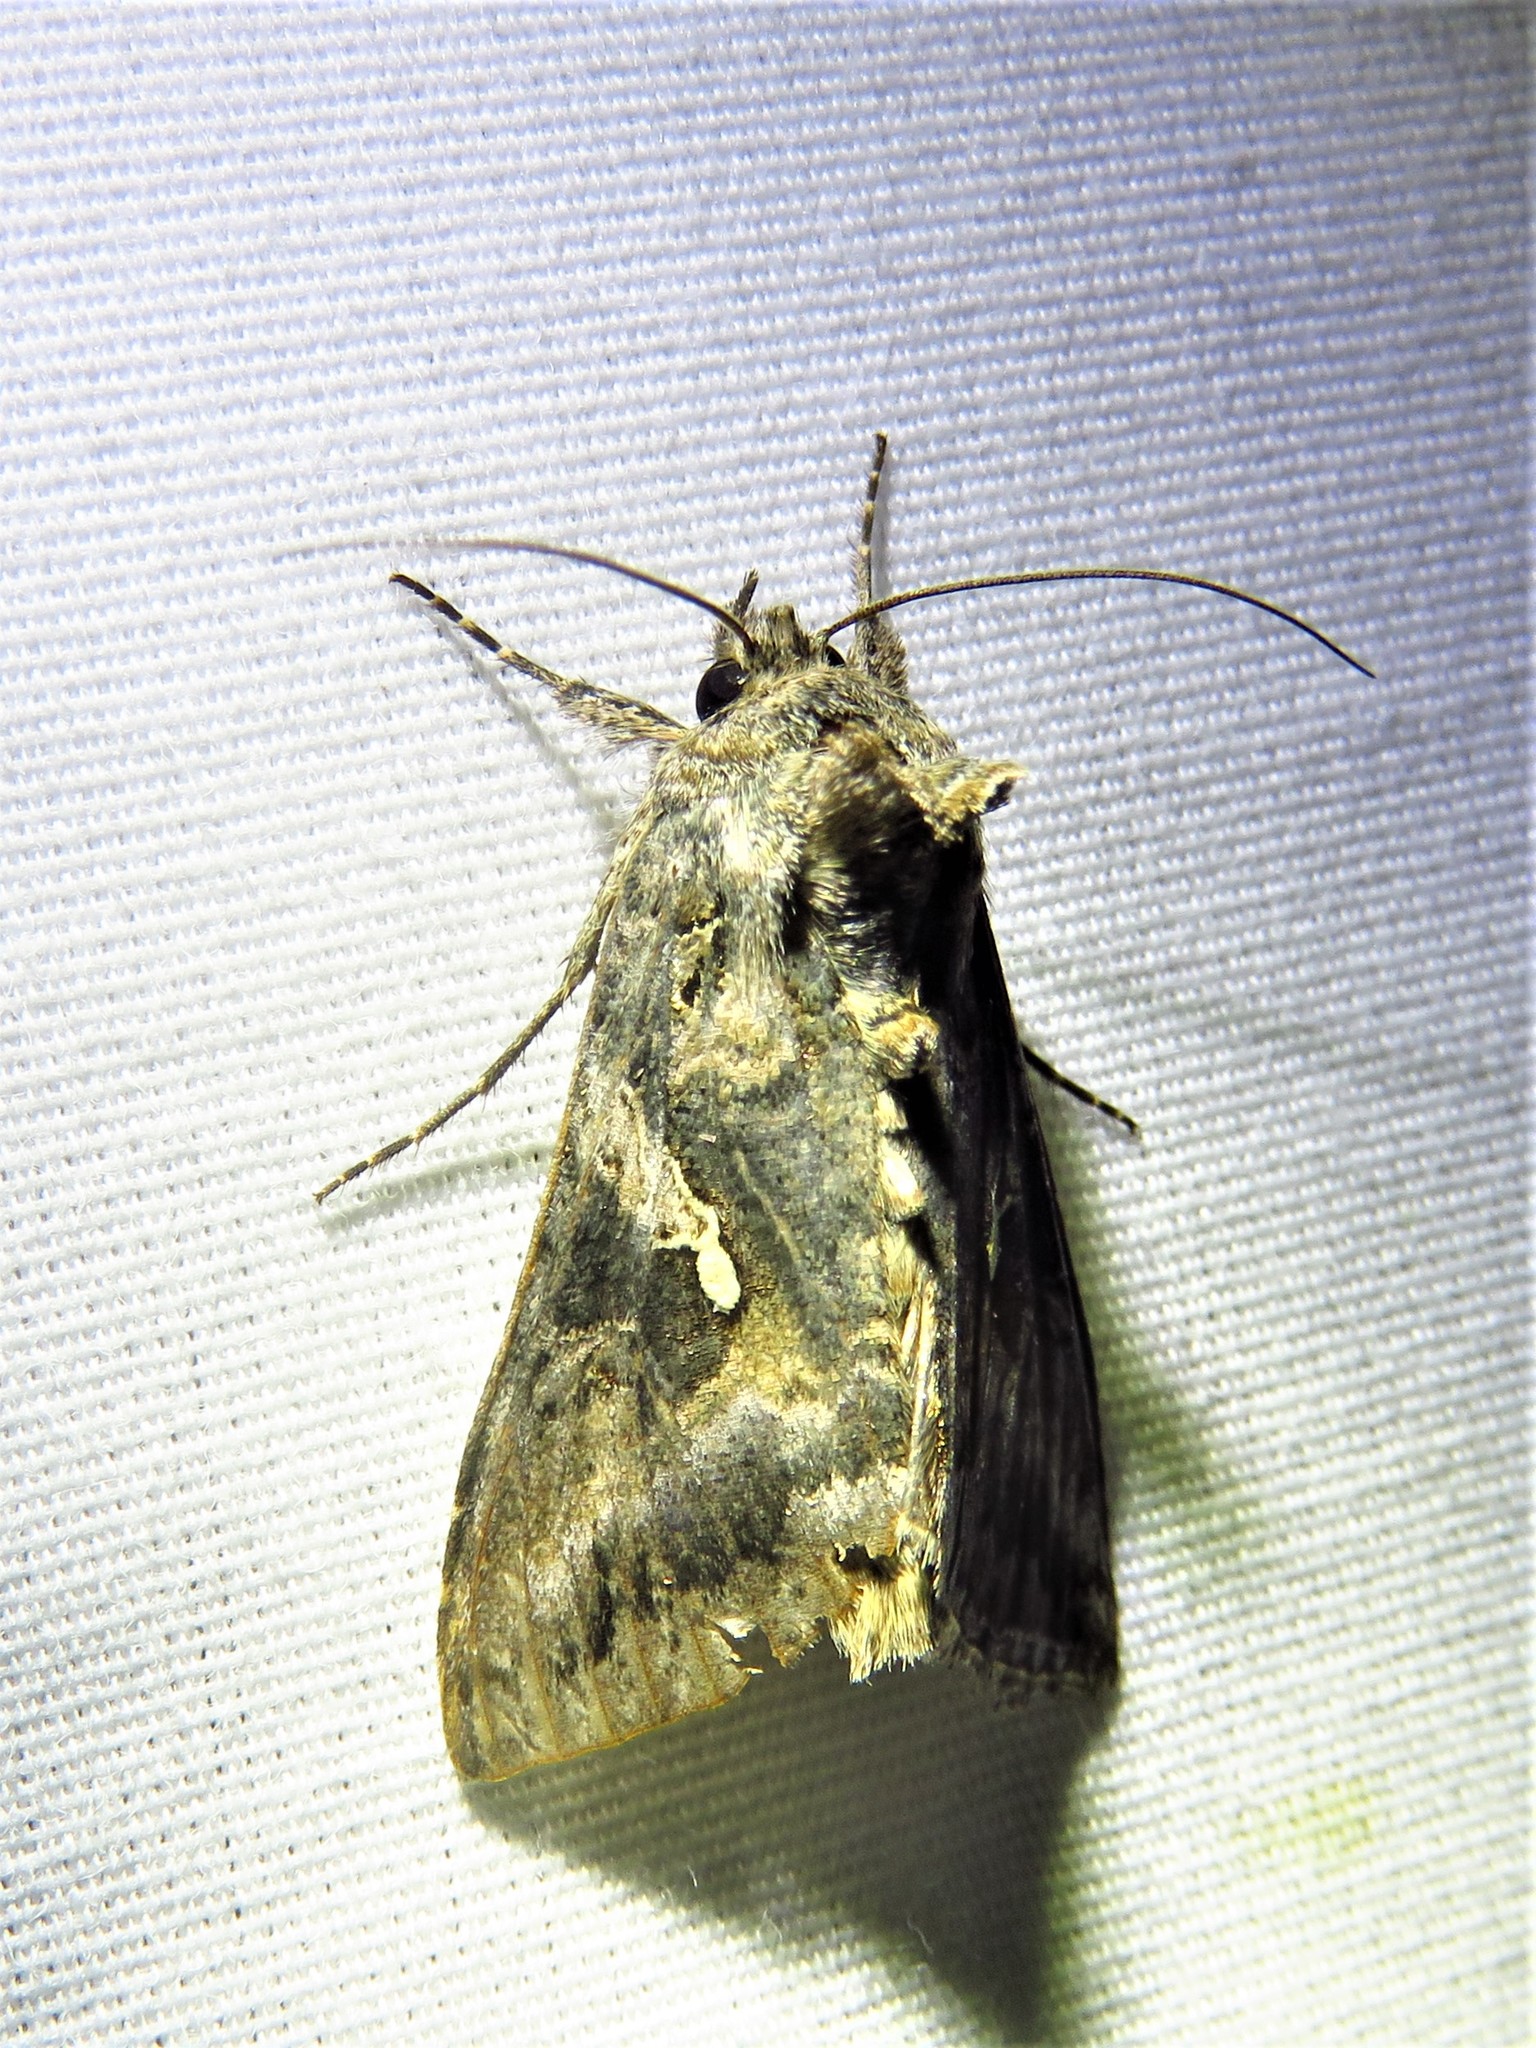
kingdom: Animalia
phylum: Arthropoda
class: Insecta
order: Lepidoptera
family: Noctuidae
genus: Rachiplusia
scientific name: Rachiplusia ou
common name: Gray looper moth
